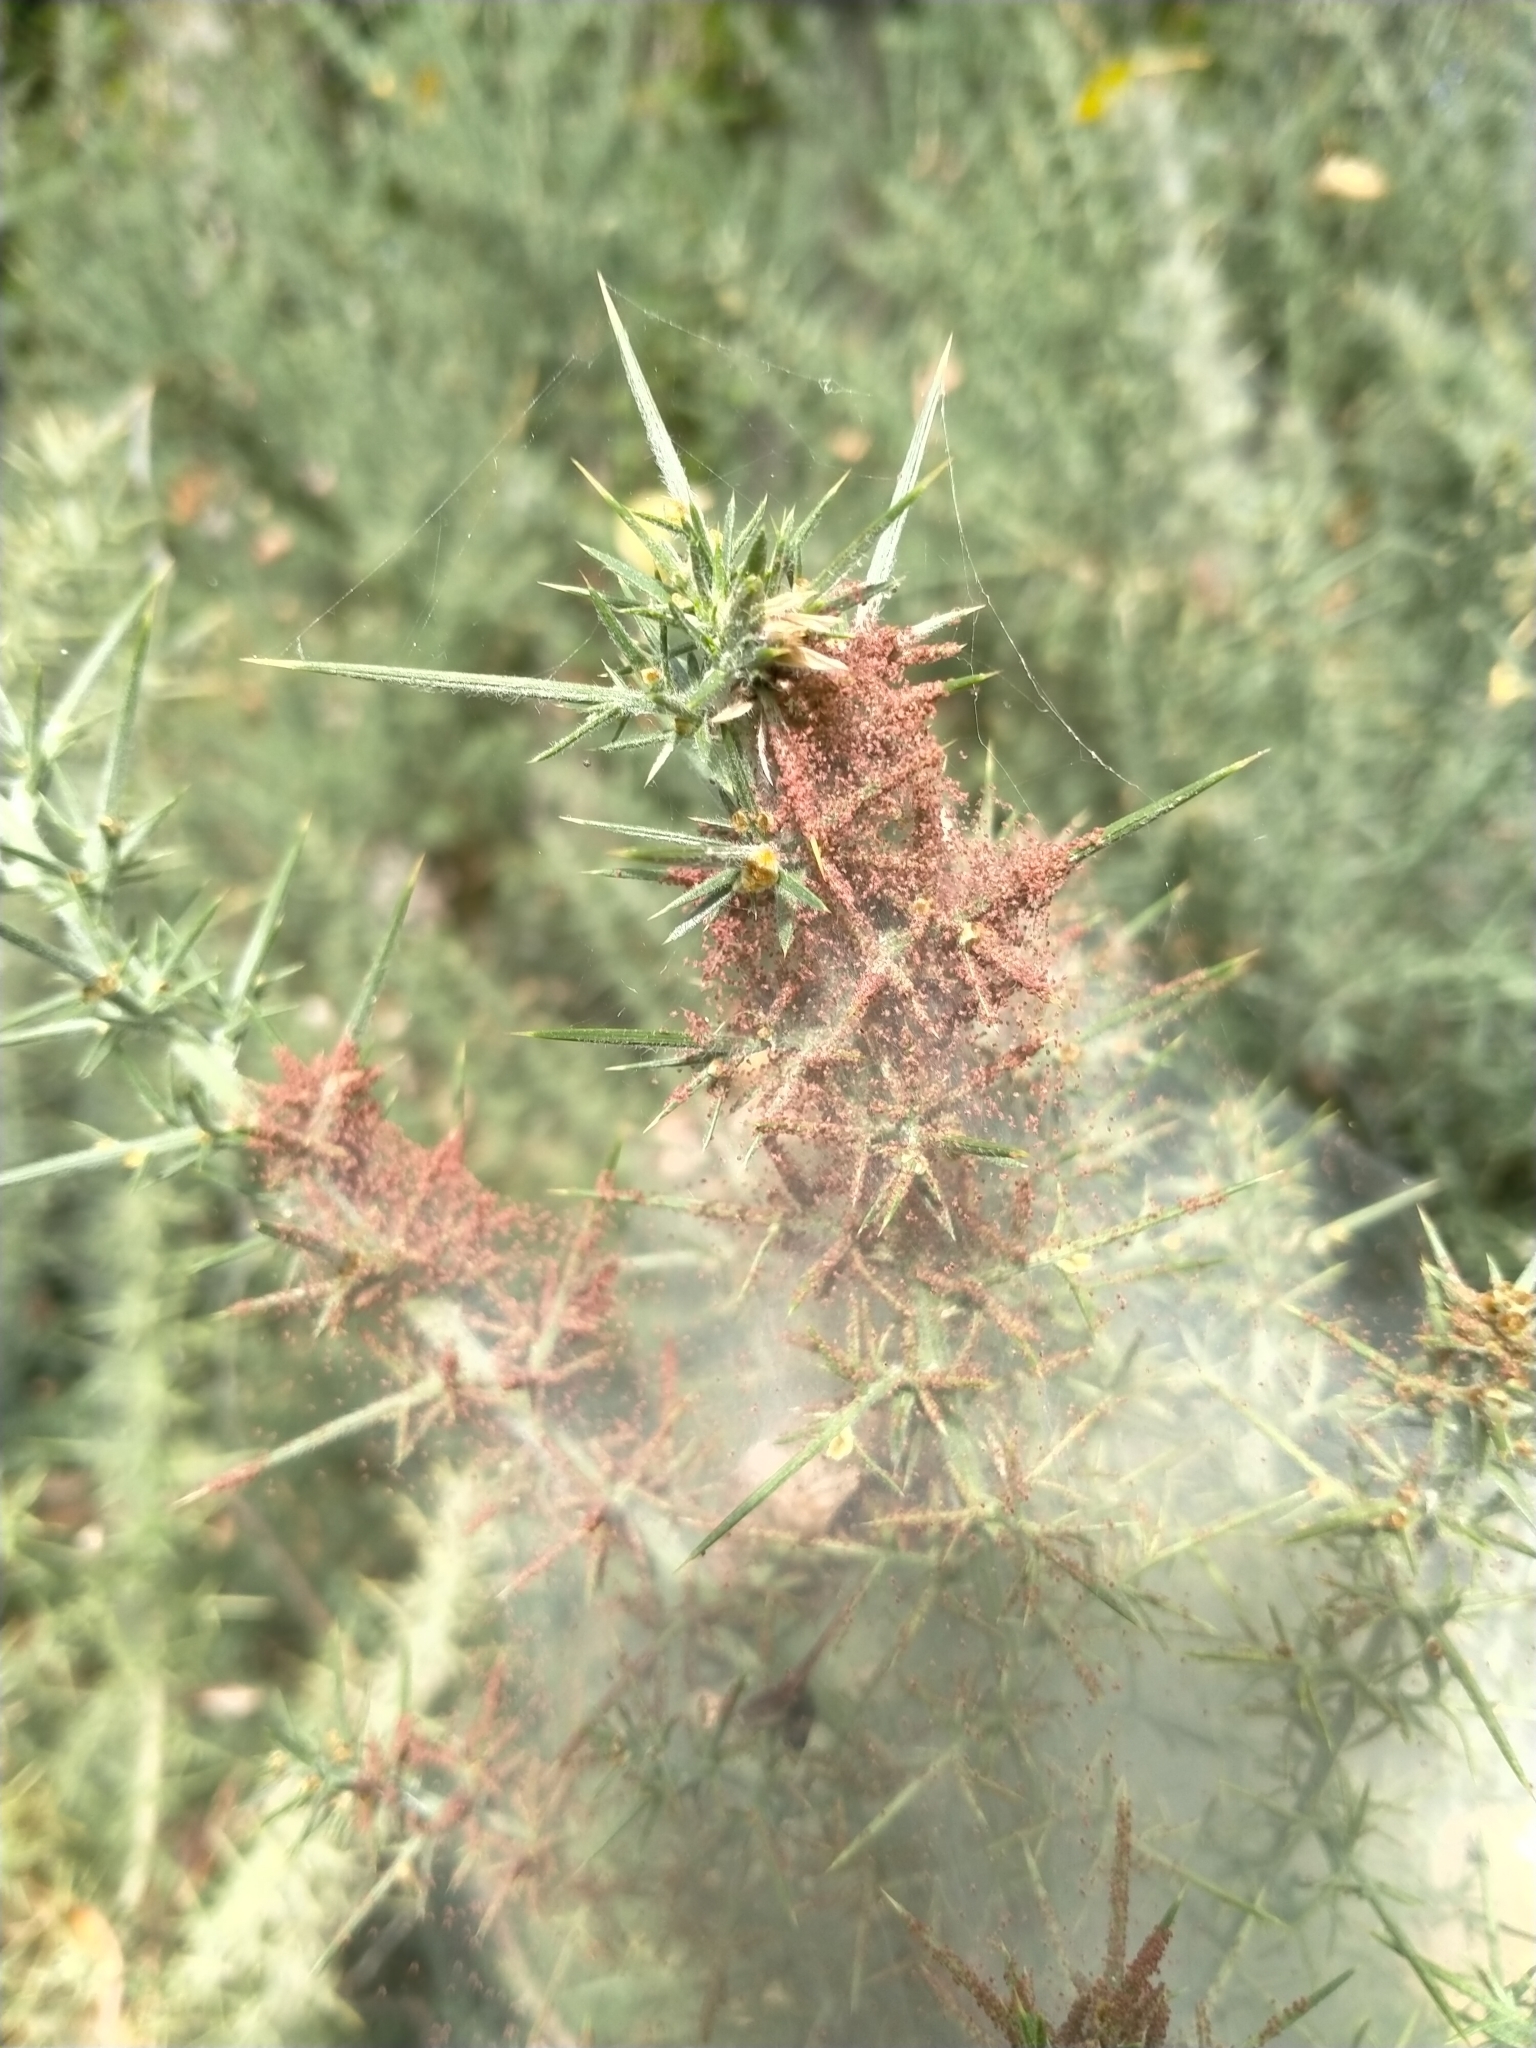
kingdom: Animalia
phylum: Arthropoda
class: Arachnida
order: Trombidiformes
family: Tetranychidae
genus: Tetranychus
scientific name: Tetranychus lintearius
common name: Gorse spider mite
